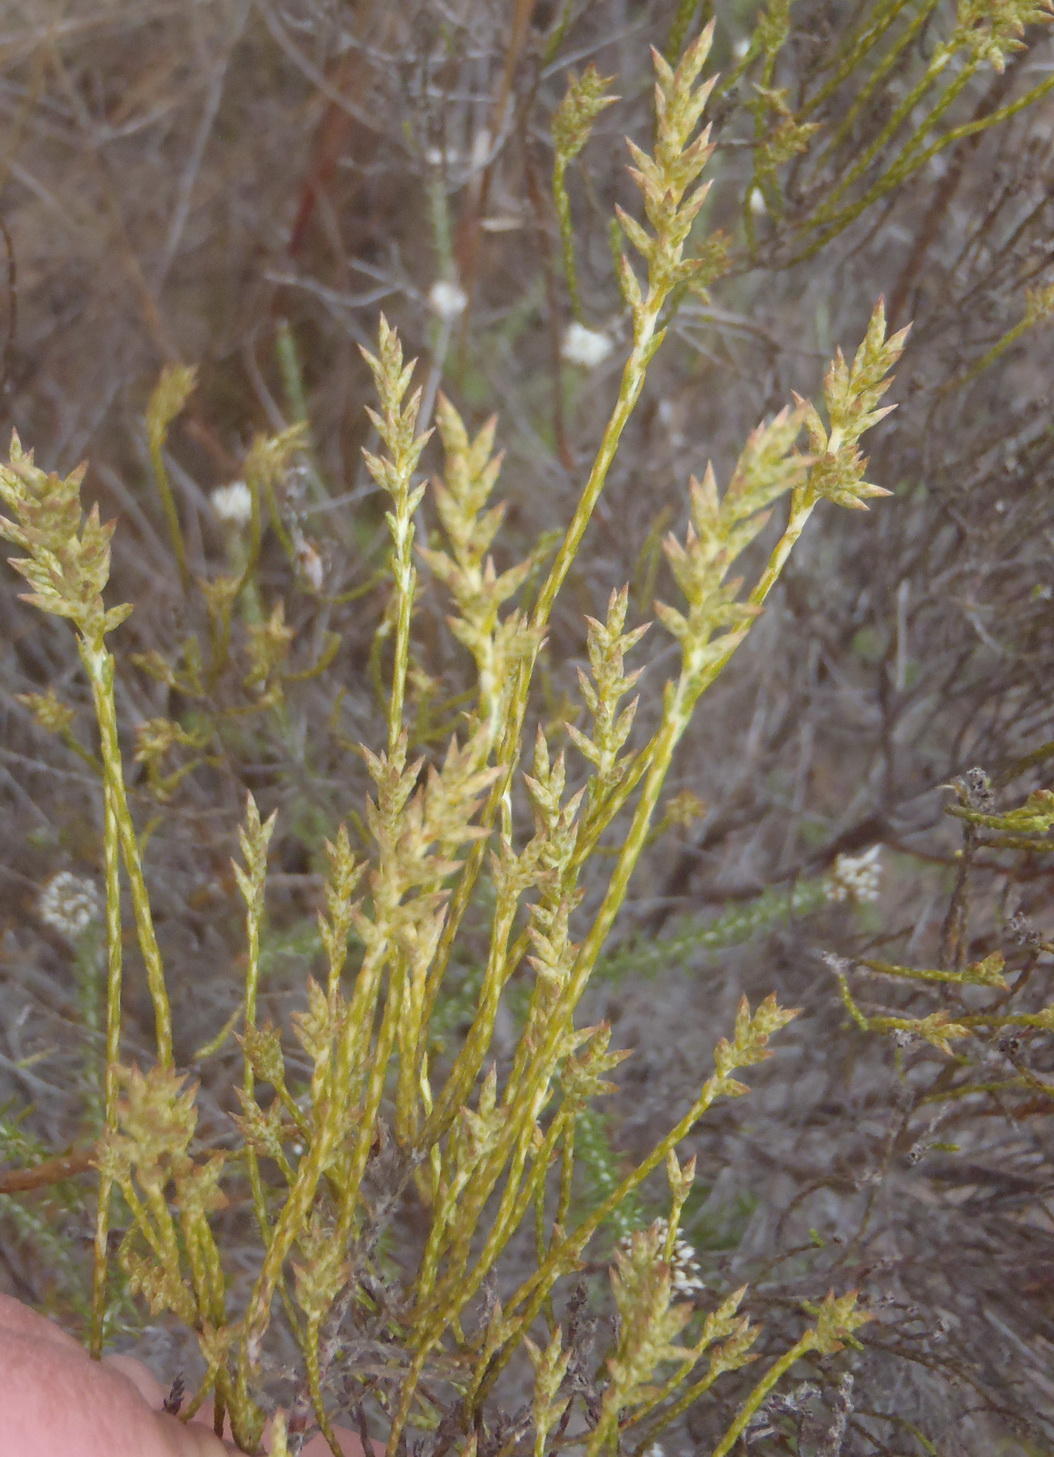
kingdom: Plantae
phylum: Tracheophyta
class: Magnoliopsida
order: Asterales
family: Asteraceae
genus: Dicerothamnus
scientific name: Dicerothamnus adpressus
